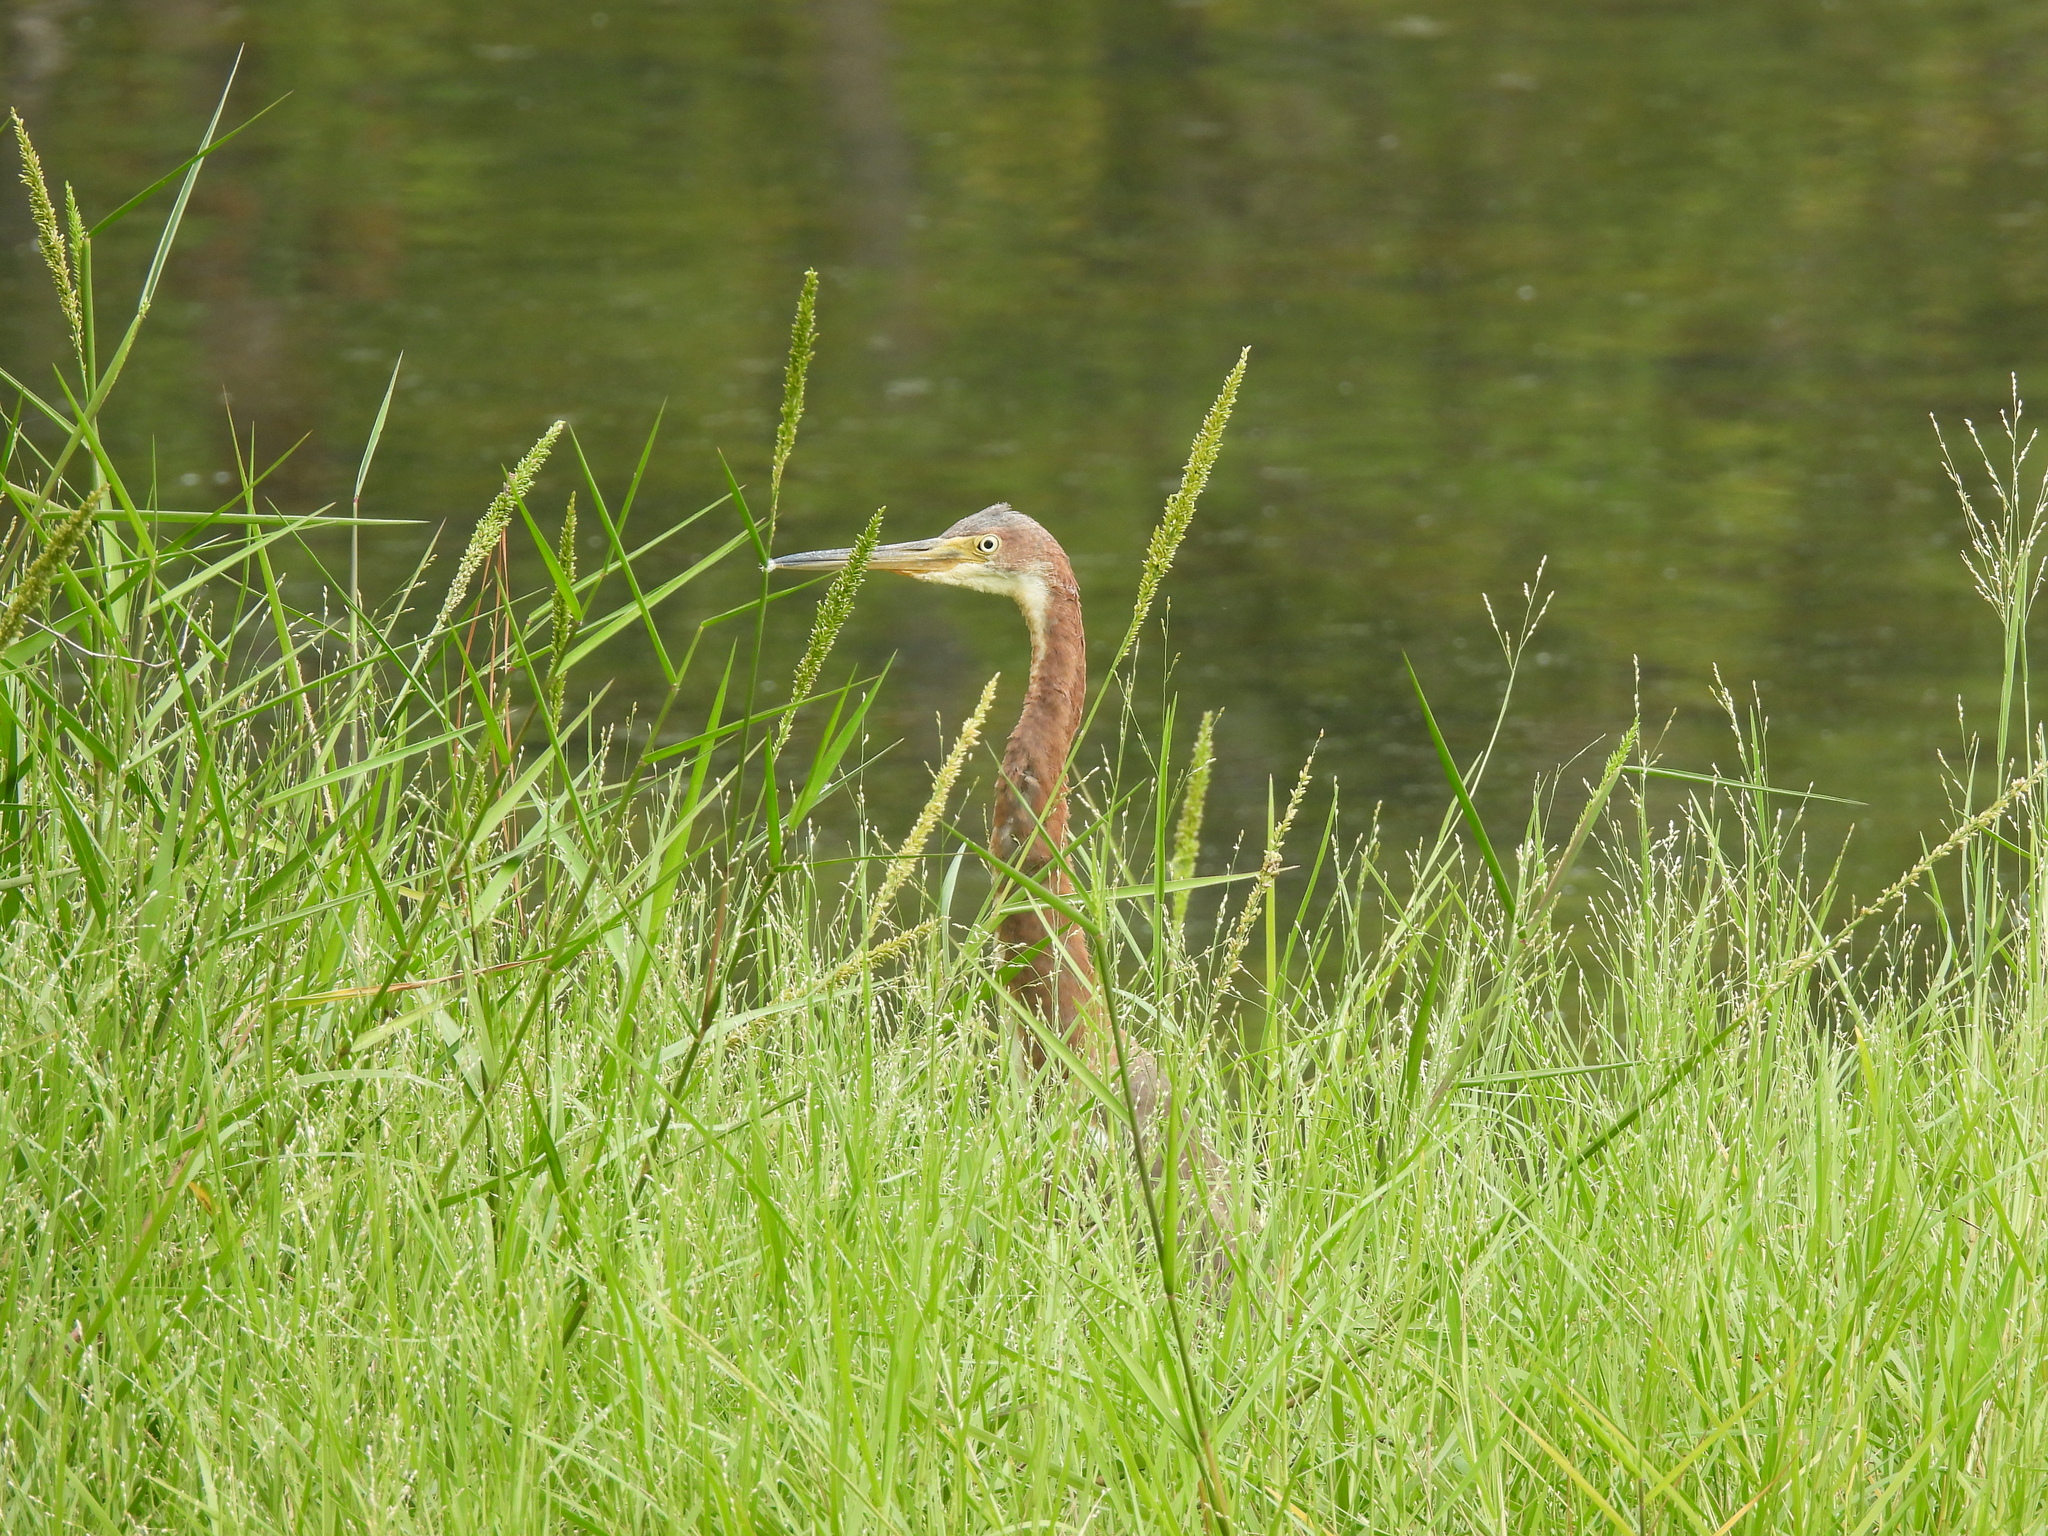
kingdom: Animalia
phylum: Chordata
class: Aves
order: Pelecaniformes
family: Ardeidae
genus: Egretta
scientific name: Egretta tricolor
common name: Tricolored heron
